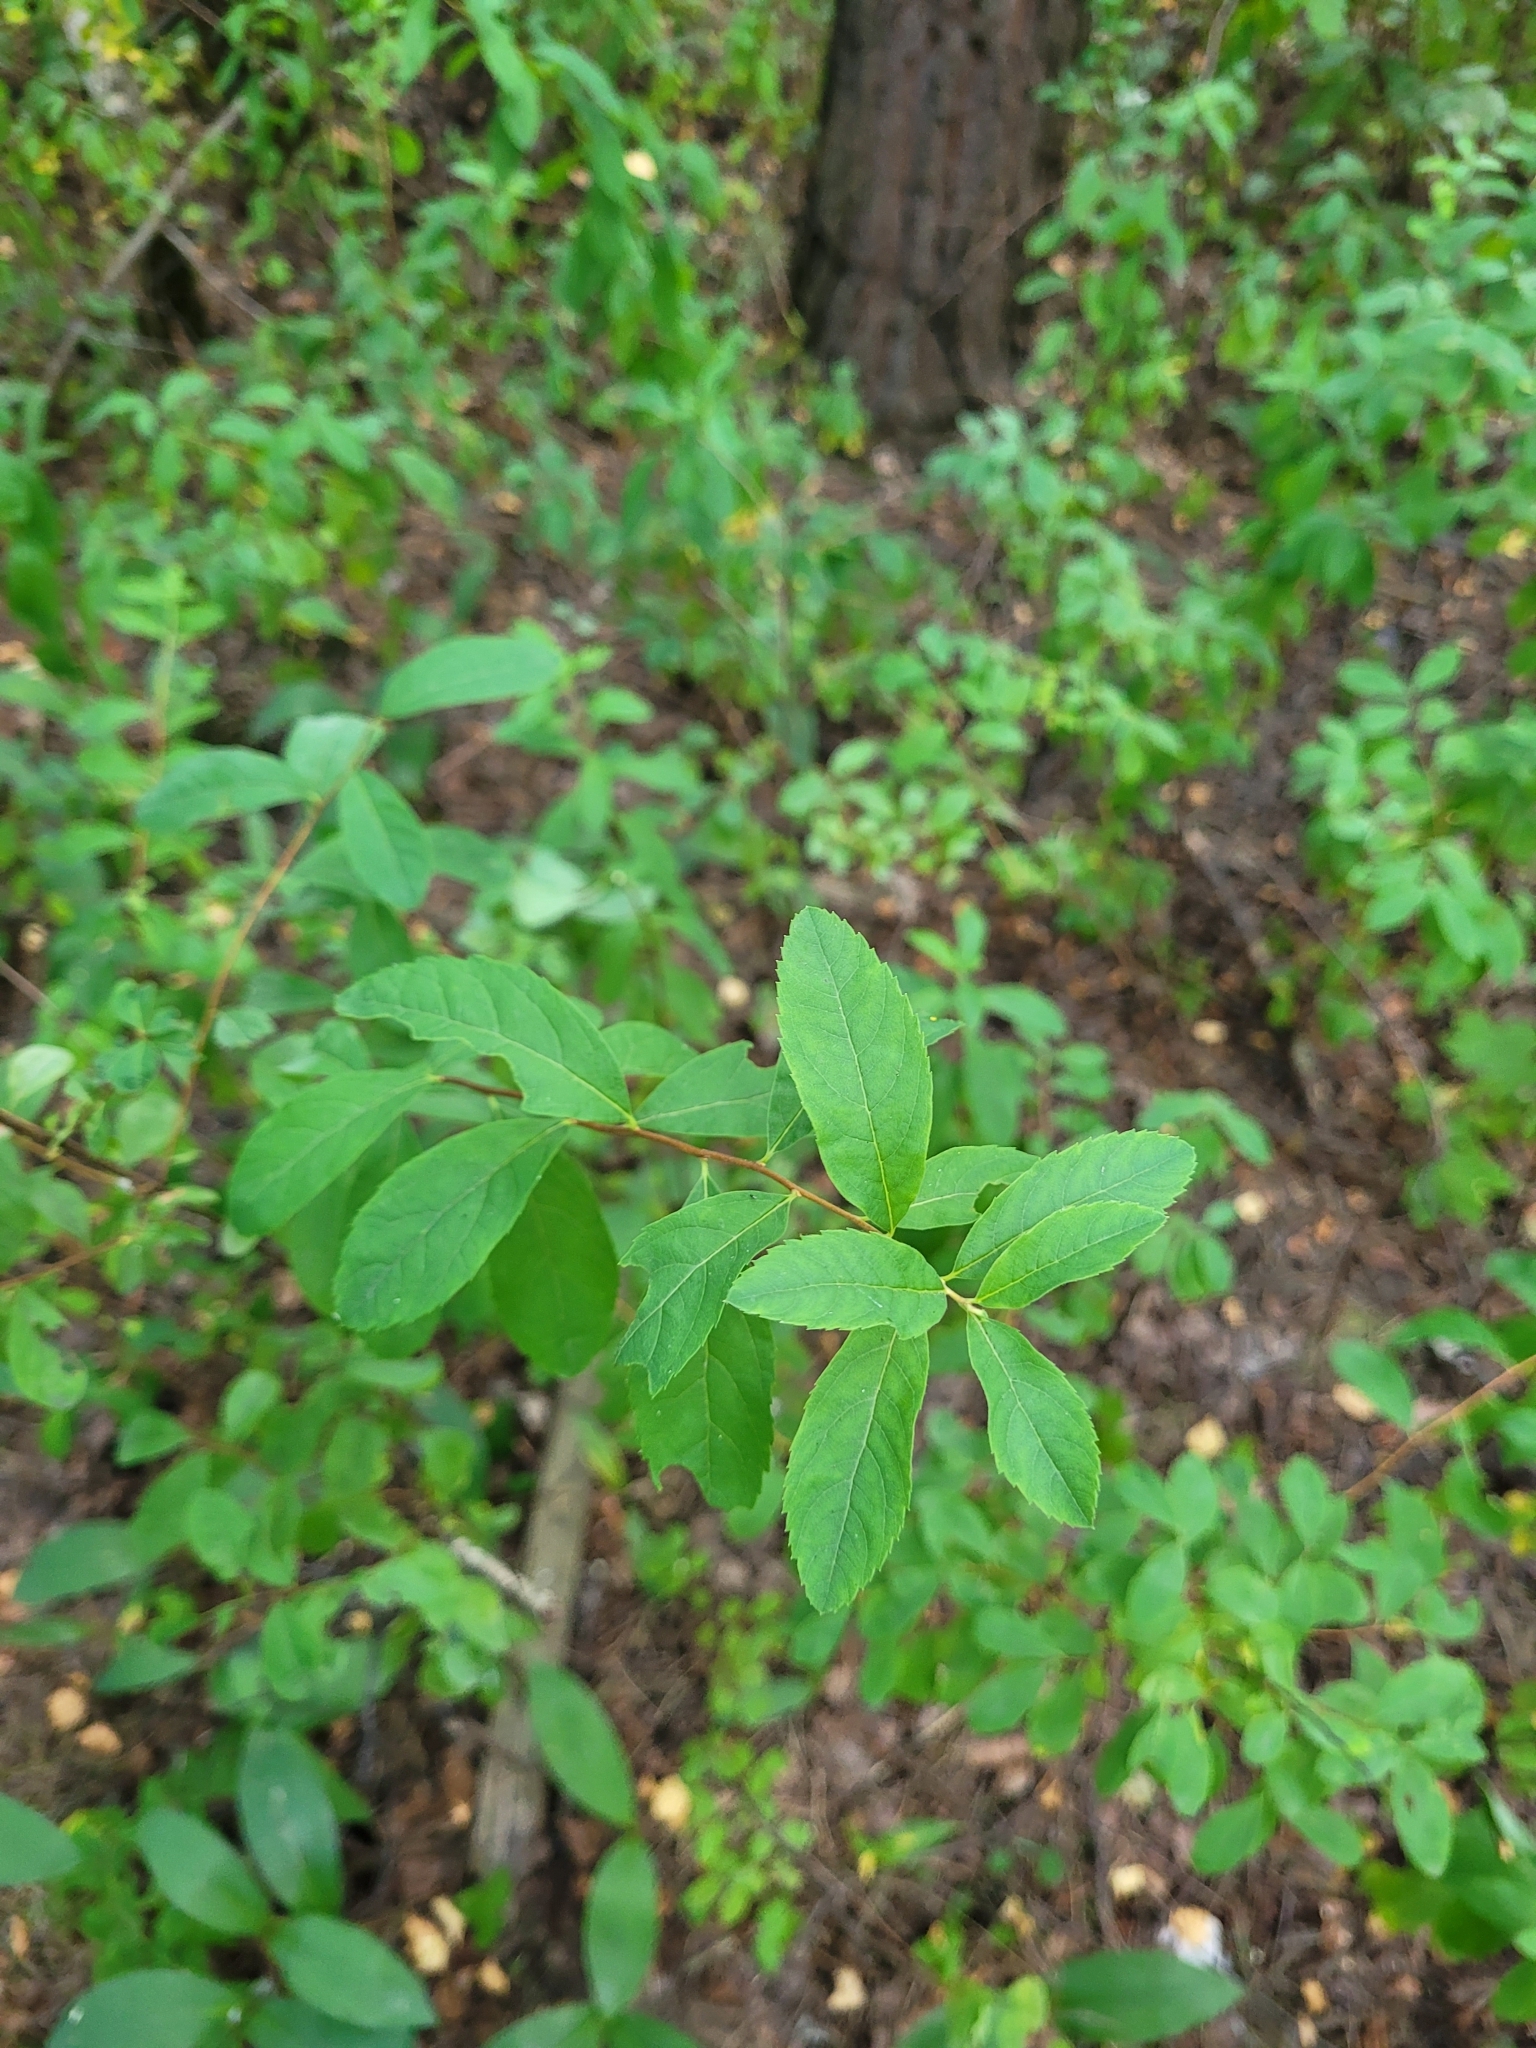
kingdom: Plantae
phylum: Tracheophyta
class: Magnoliopsida
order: Rosales
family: Rosaceae
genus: Spiraea
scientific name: Spiraea douglasii
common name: Steeplebush
